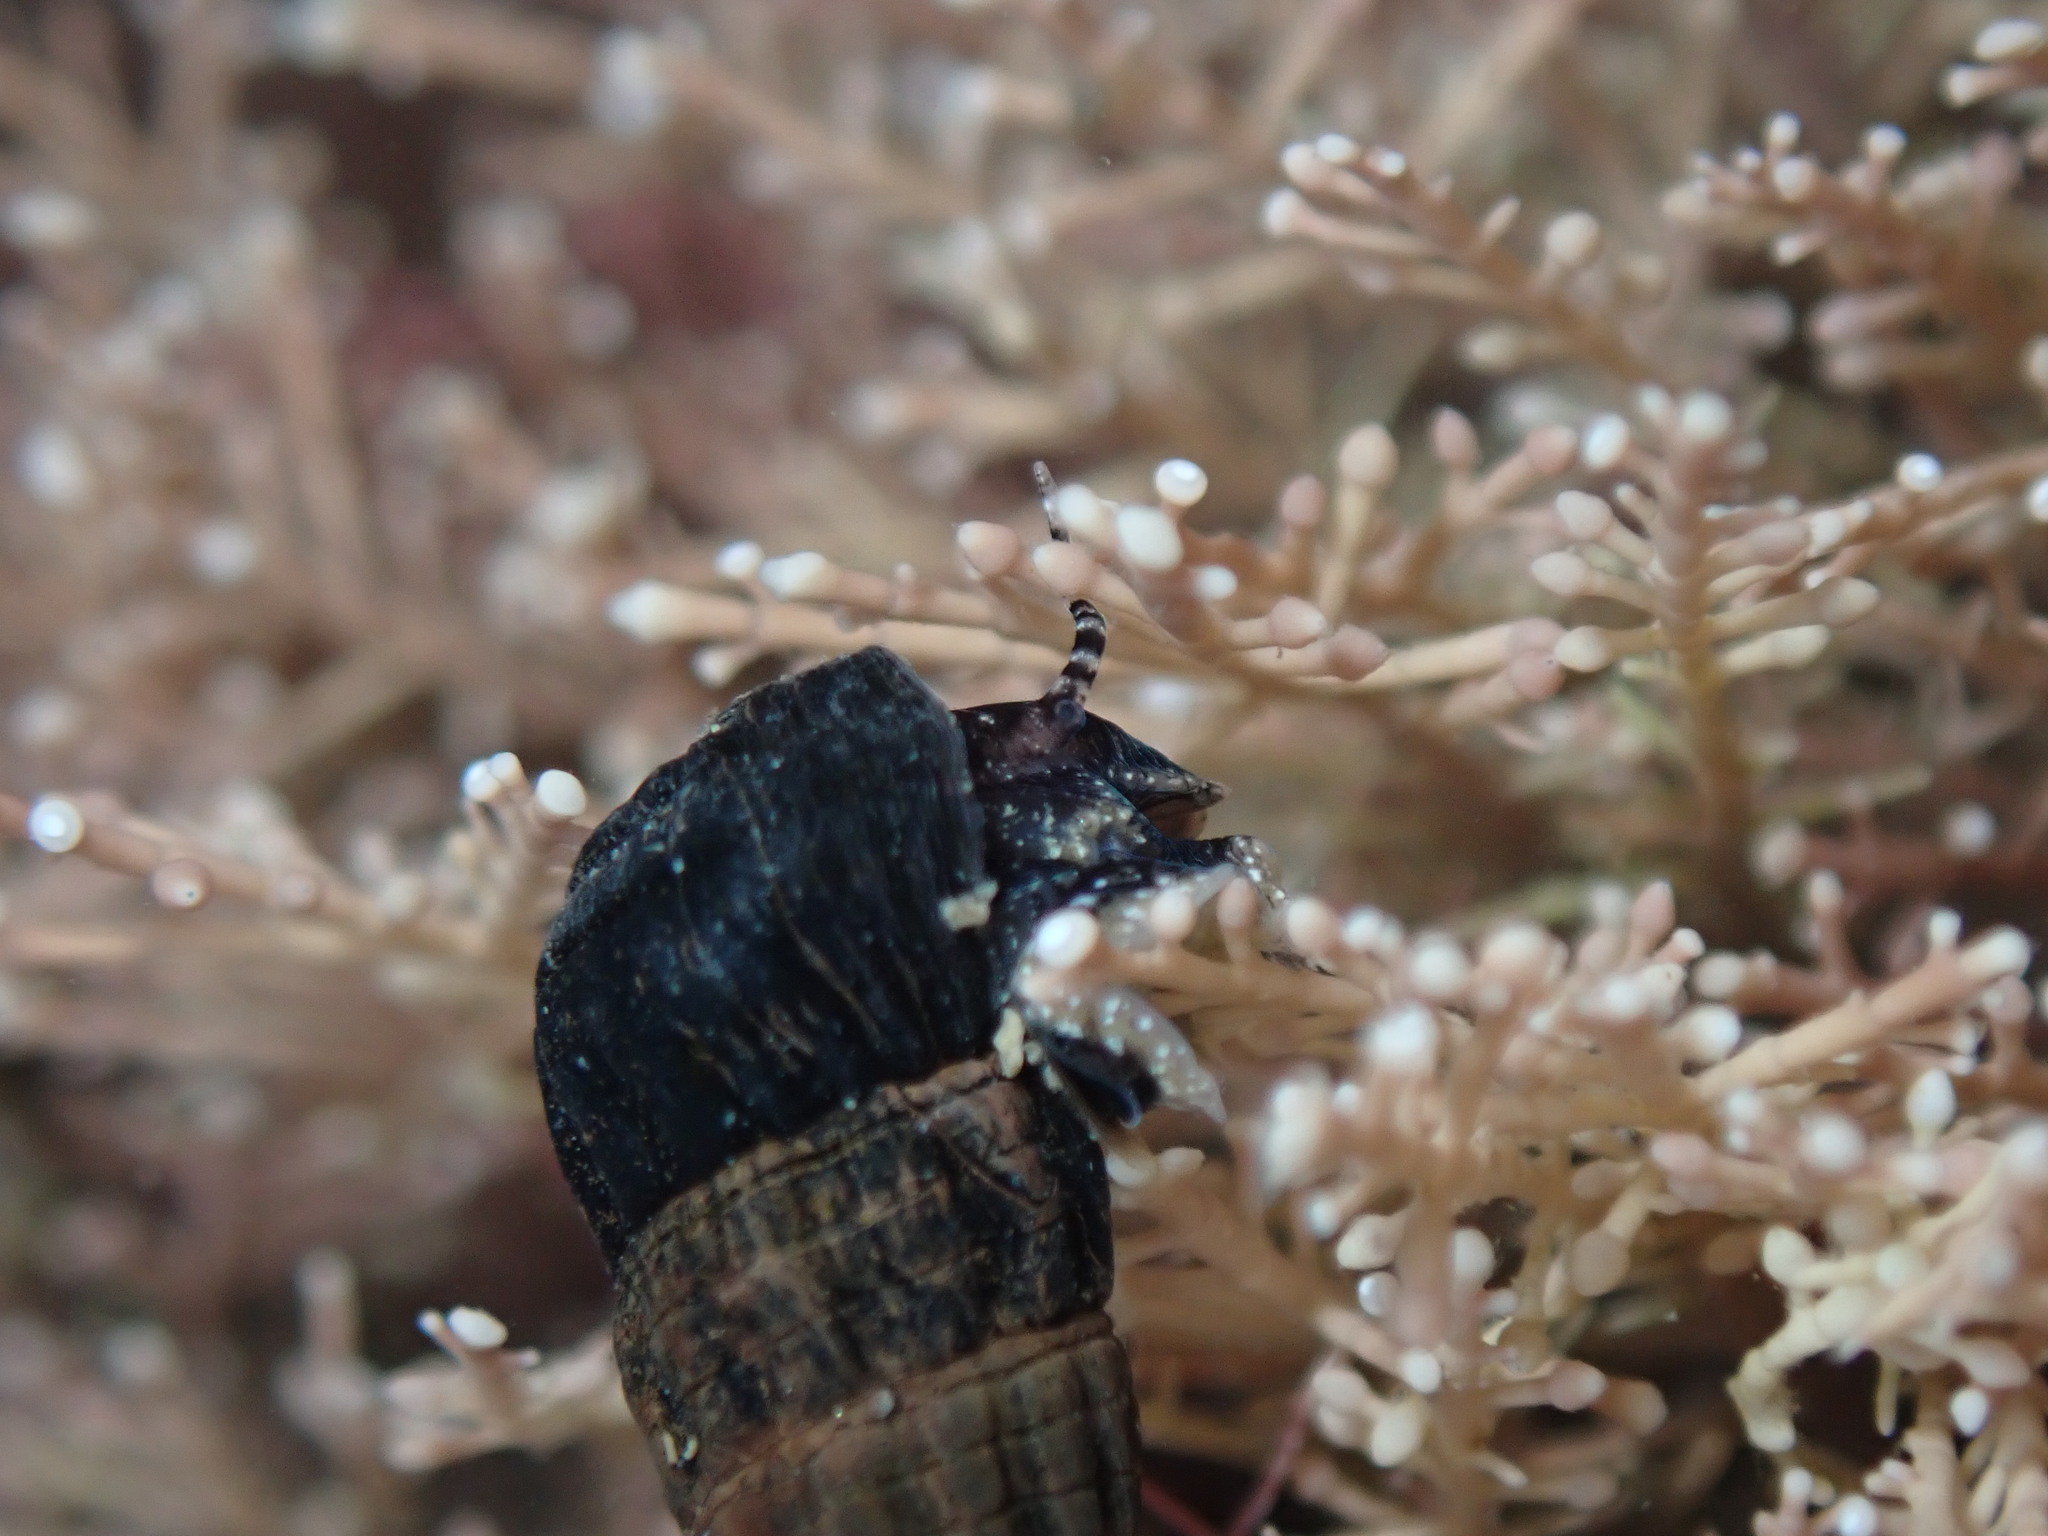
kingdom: Animalia
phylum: Mollusca
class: Gastropoda
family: Batillariidae
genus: Zeacumantus
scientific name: Zeacumantus subcarinatus
